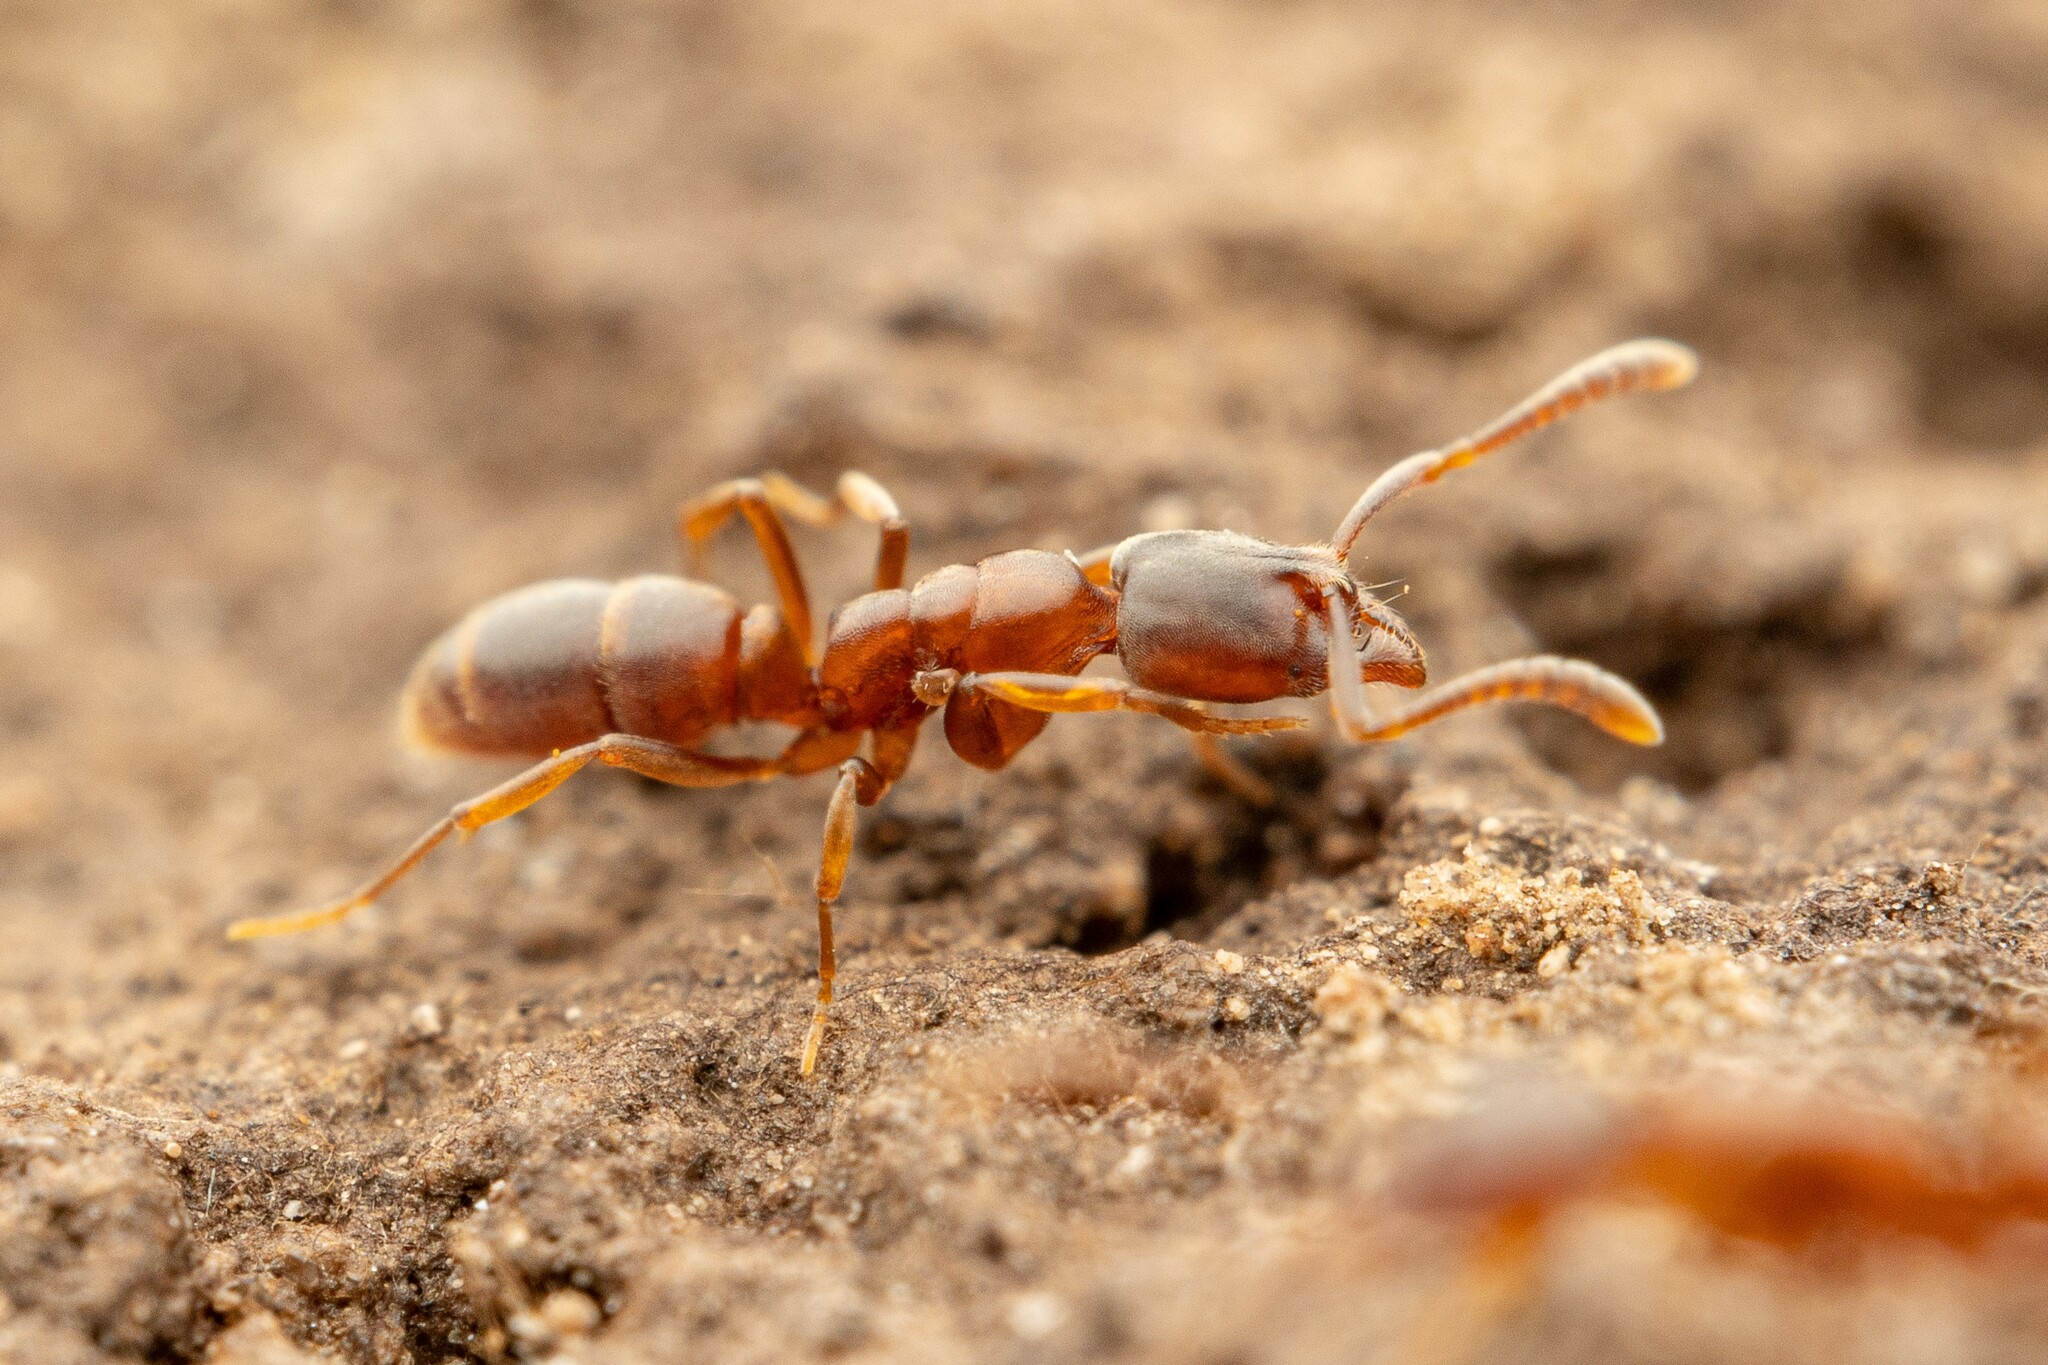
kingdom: Animalia
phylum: Arthropoda
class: Insecta
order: Hymenoptera
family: Formicidae
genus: Hypoponera
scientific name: Hypoponera opacior
